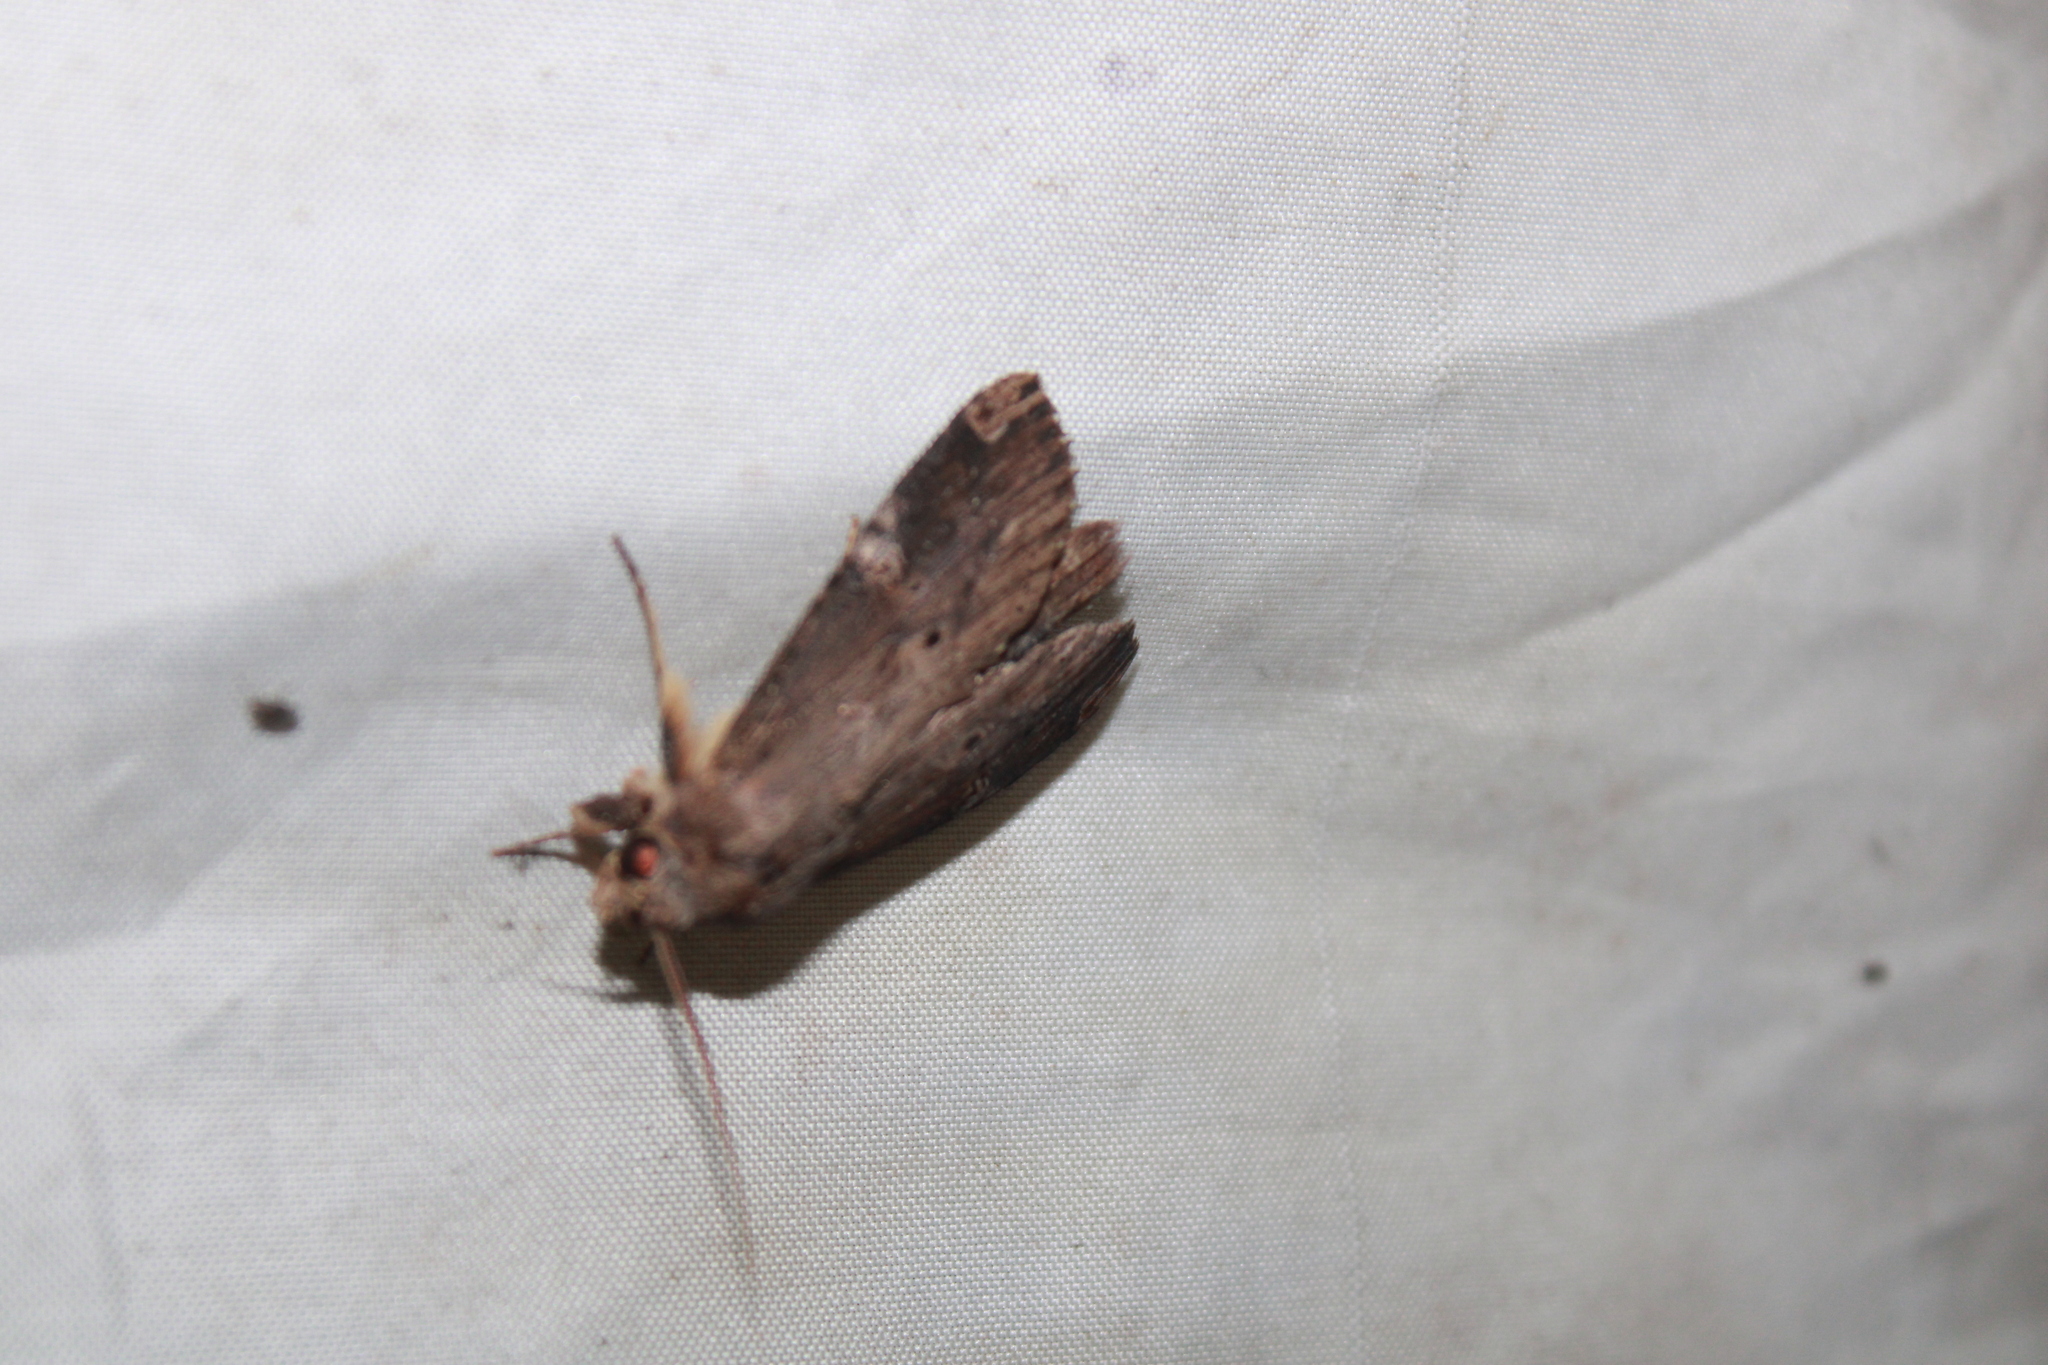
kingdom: Animalia
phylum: Arthropoda
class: Insecta
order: Lepidoptera
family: Notodontidae
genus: Nystalea
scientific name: Nystalea eutalanta
